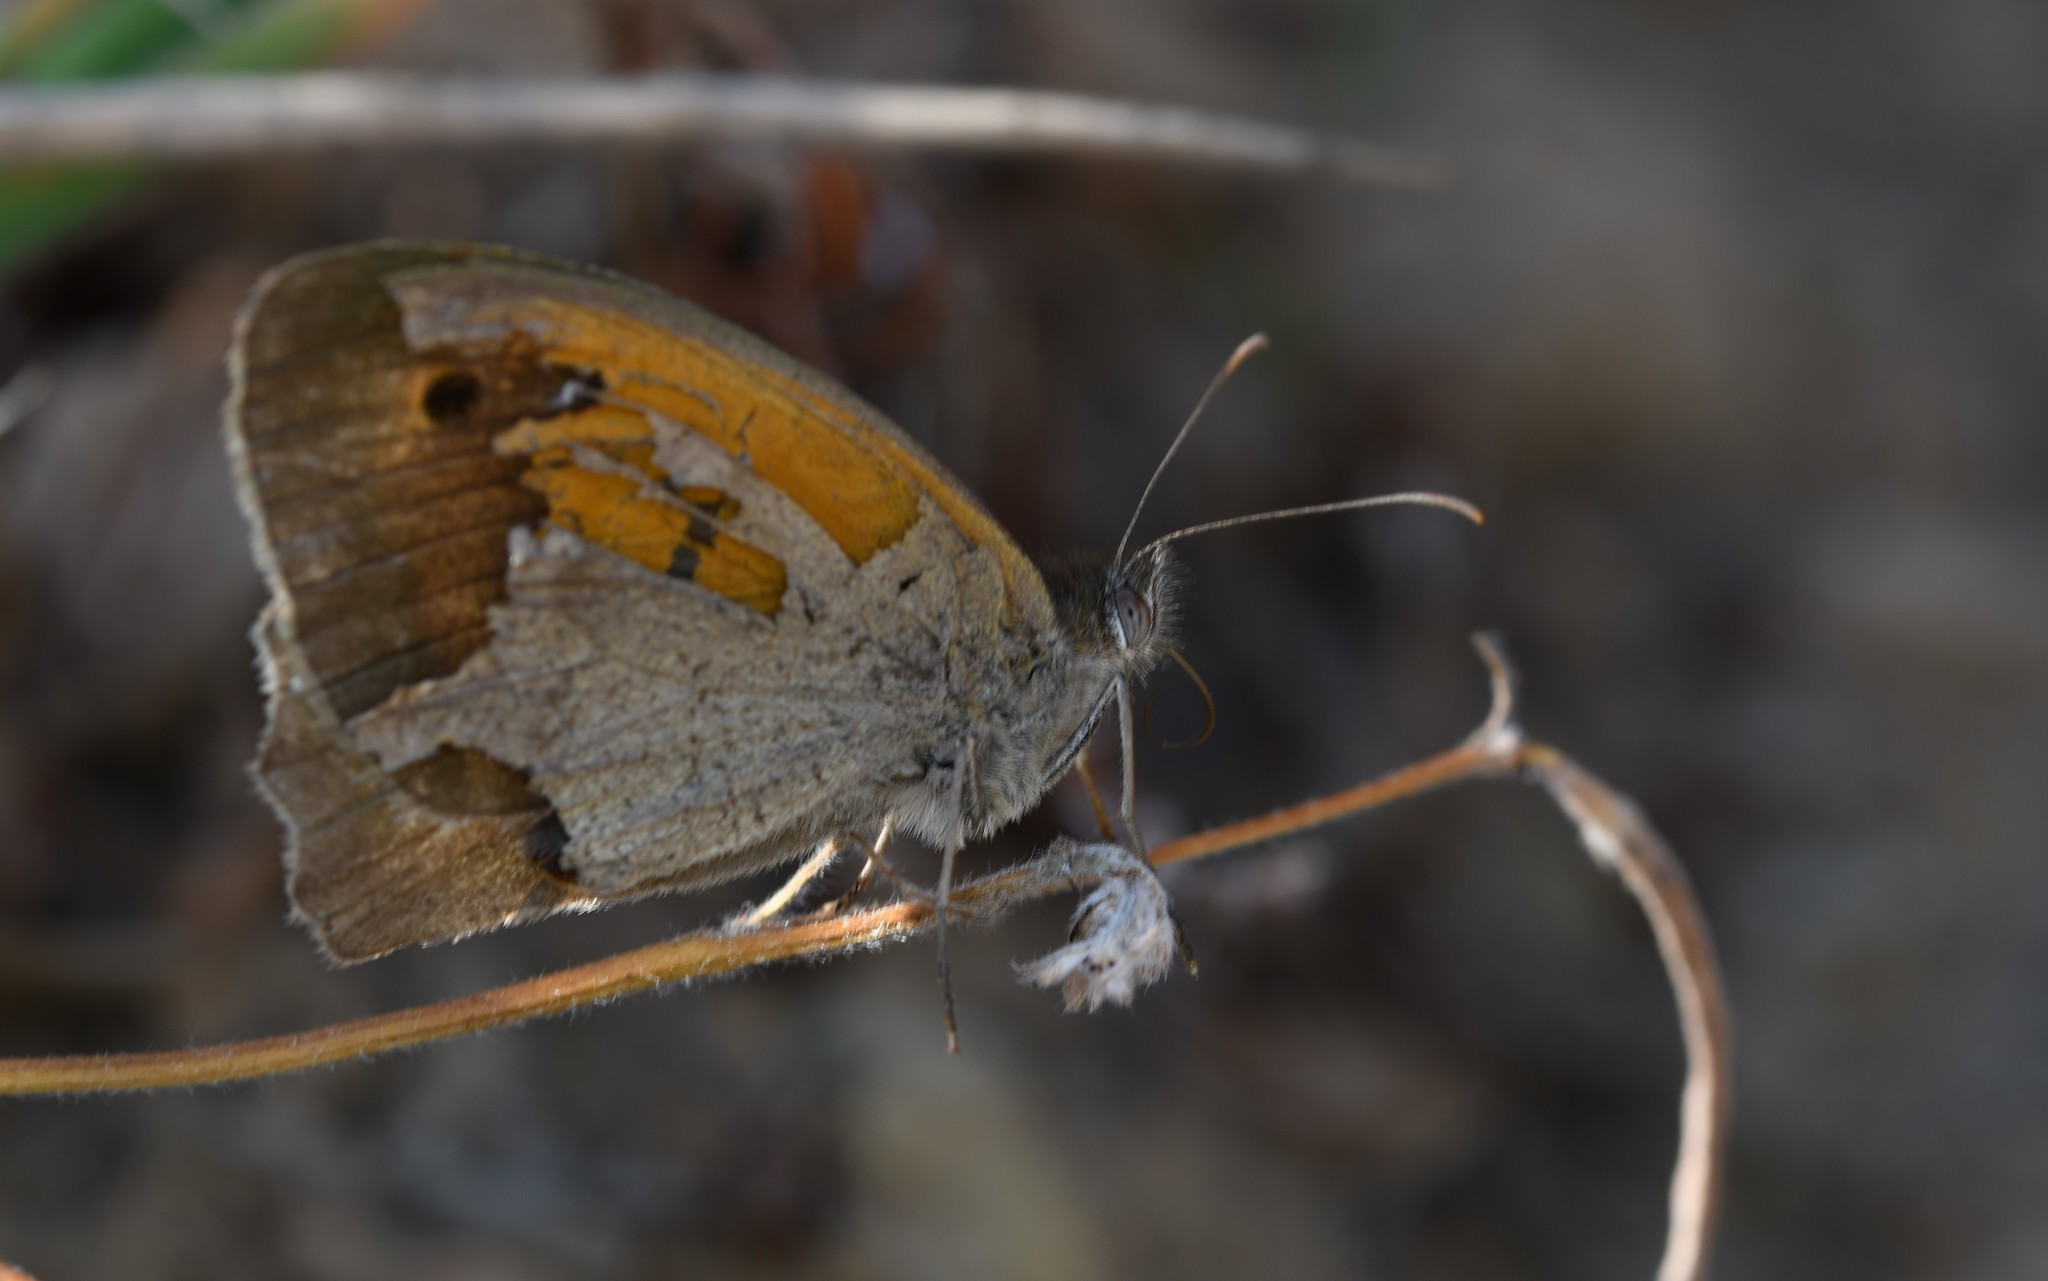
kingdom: Animalia
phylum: Arthropoda
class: Insecta
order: Lepidoptera
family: Nymphalidae
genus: Maniola
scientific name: Maniola jurtina
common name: Meadow brown
